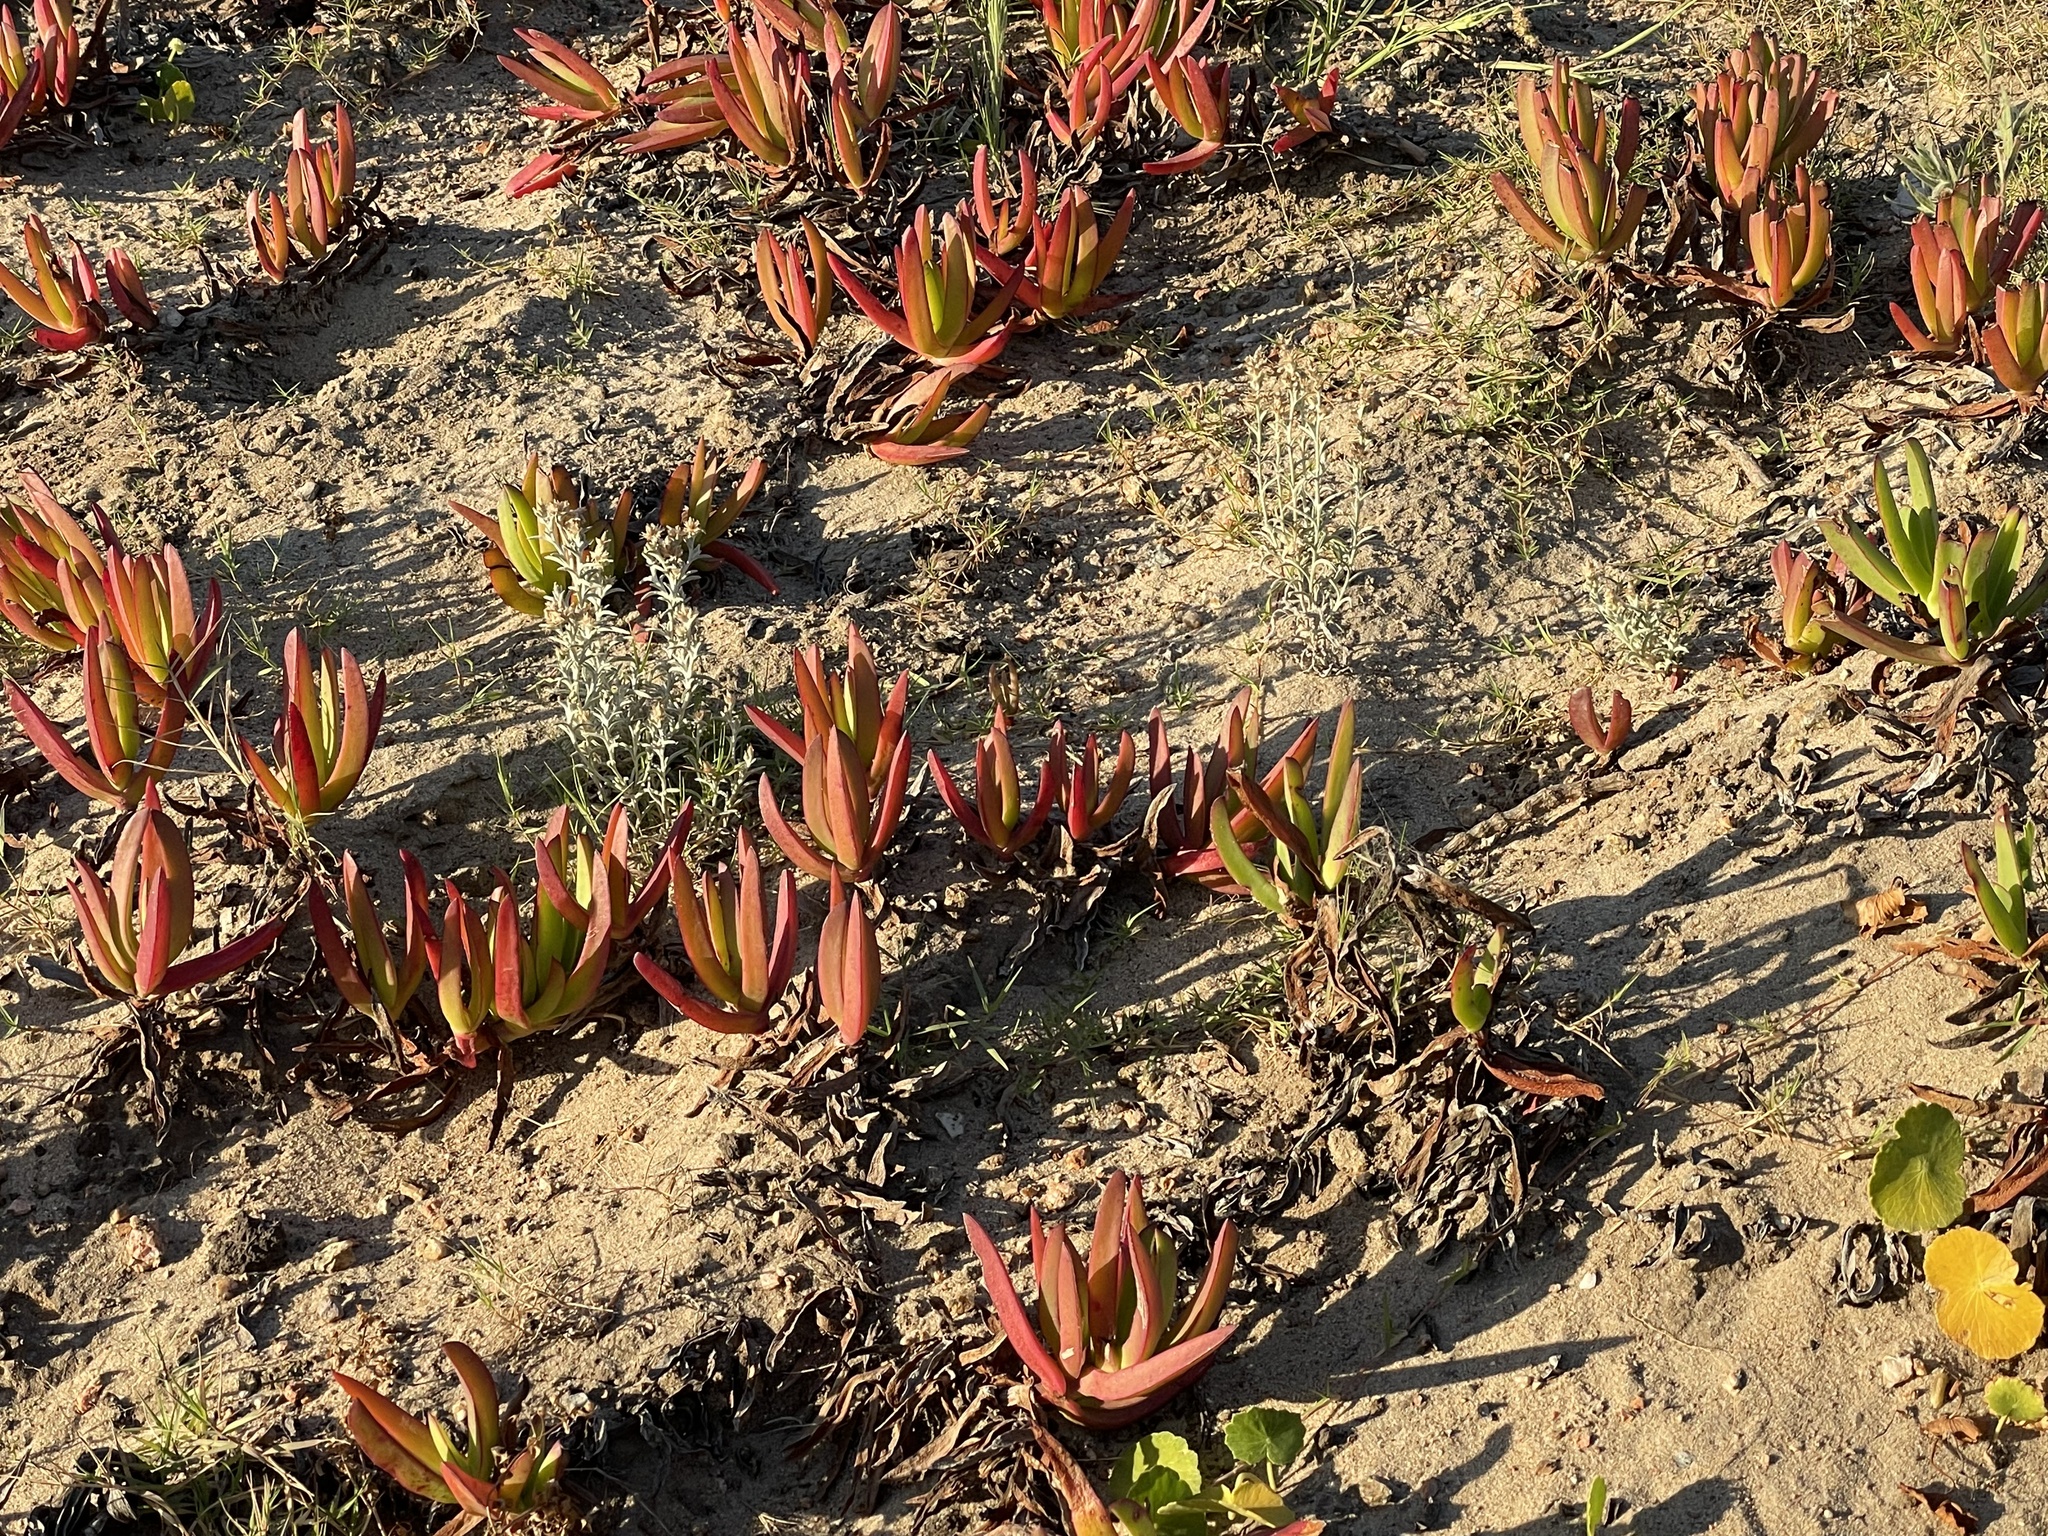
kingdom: Plantae
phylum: Tracheophyta
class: Magnoliopsida
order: Caryophyllales
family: Aizoaceae
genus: Carpobrotus
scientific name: Carpobrotus edulis
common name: Hottentot-fig
